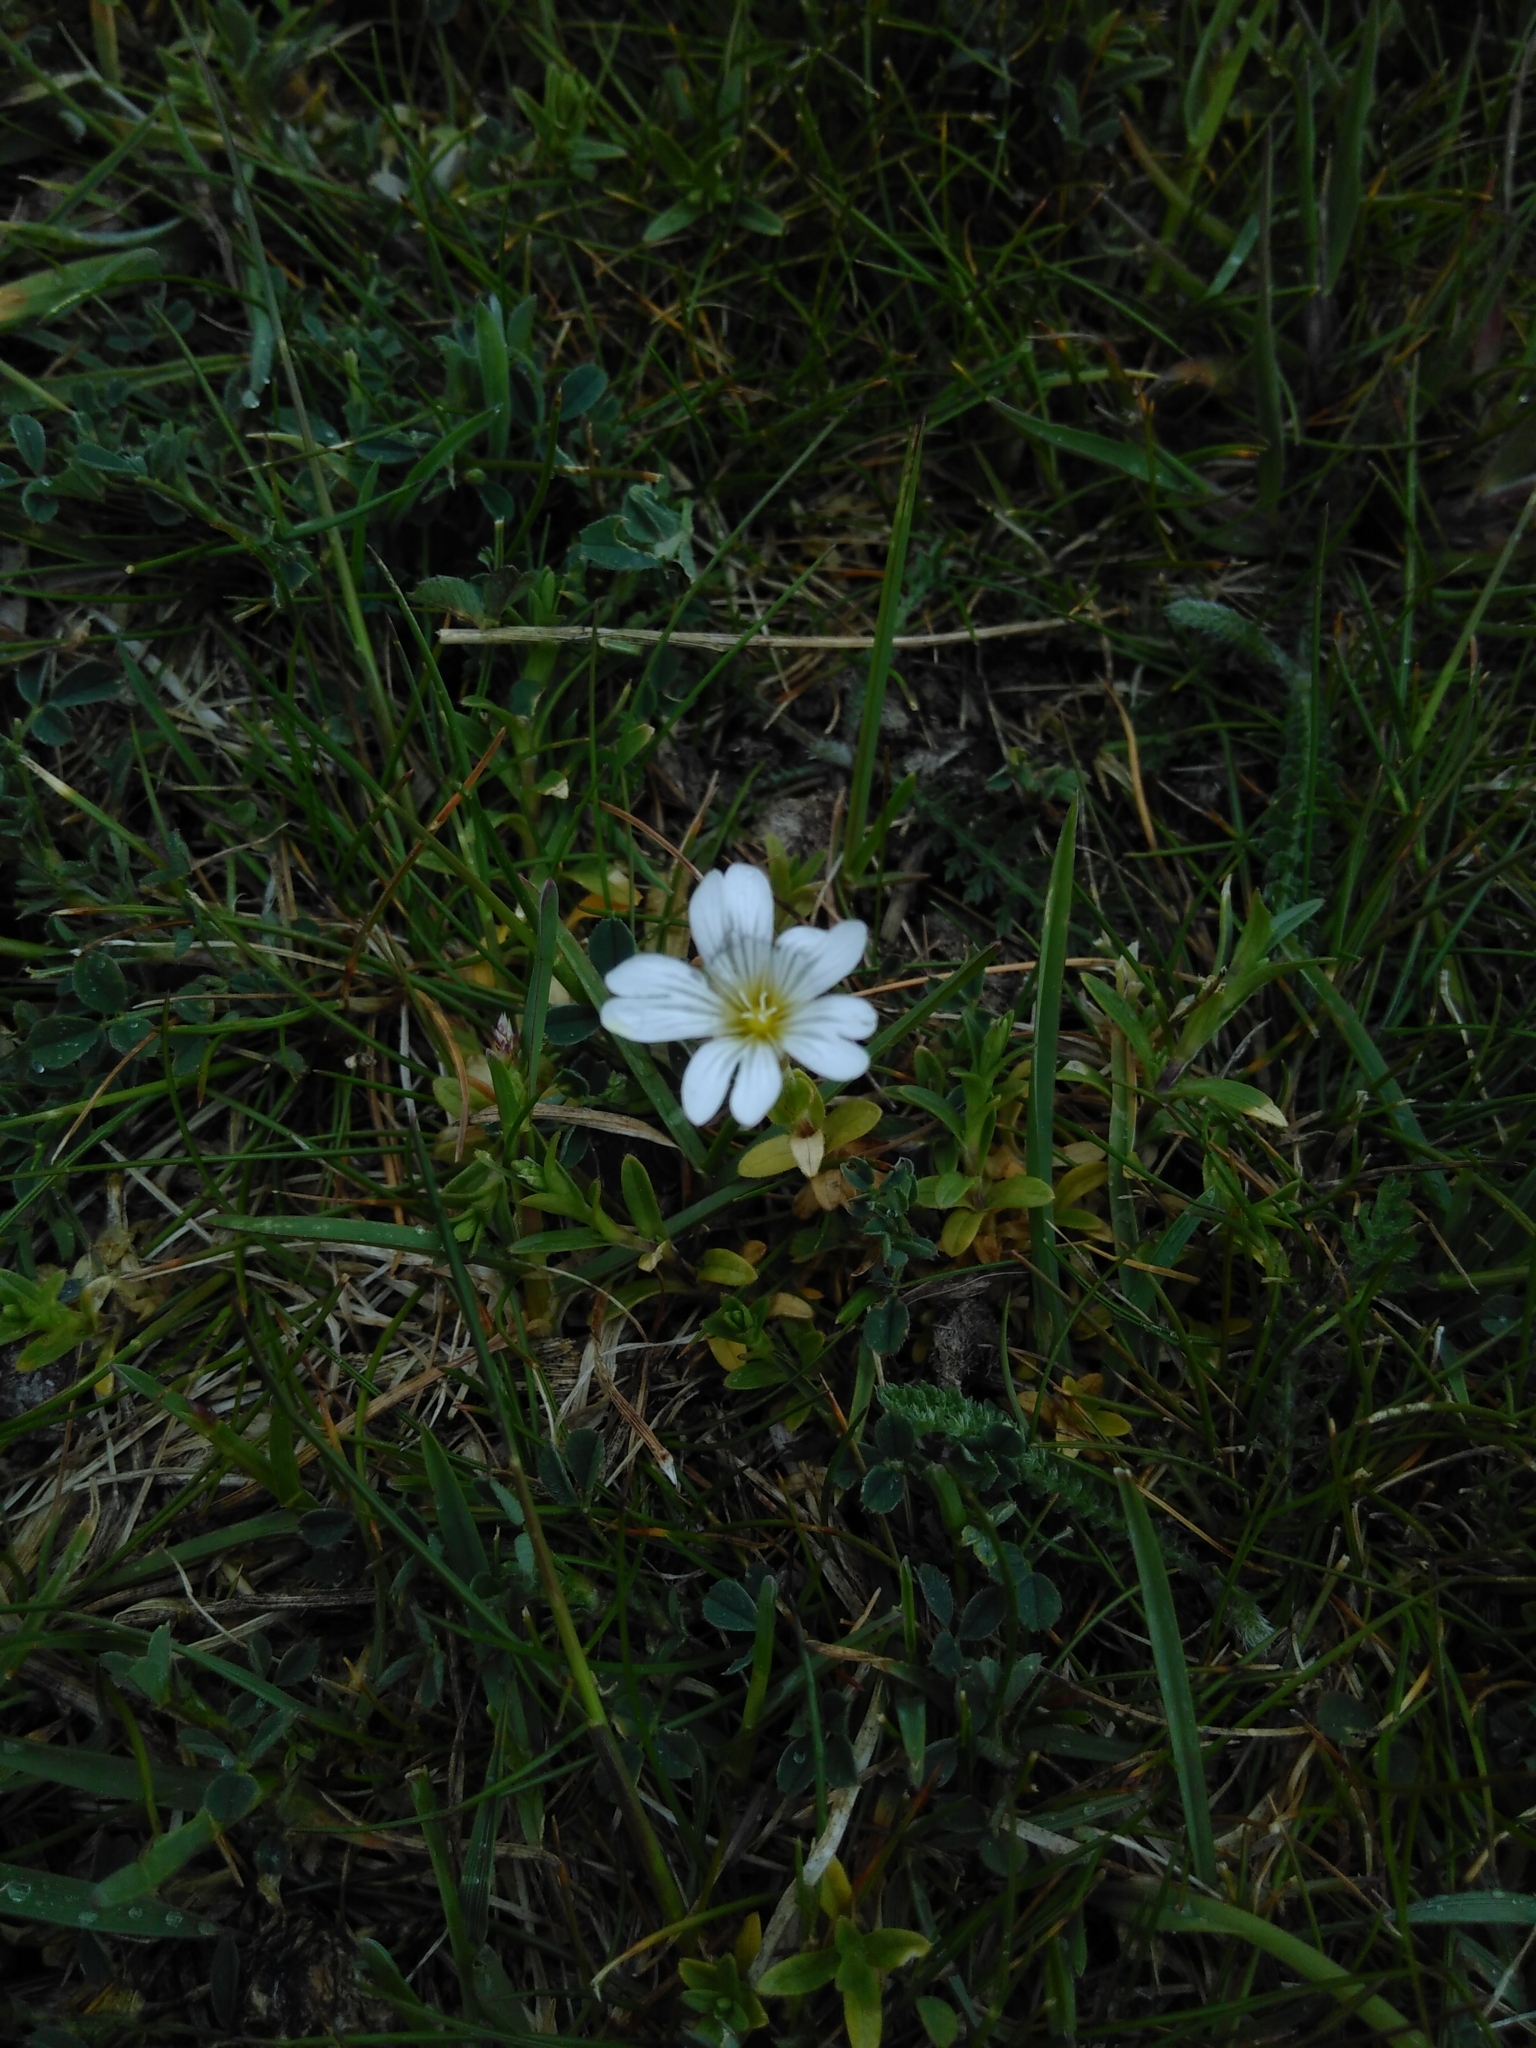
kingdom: Plantae
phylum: Tracheophyta
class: Magnoliopsida
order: Caryophyllales
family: Caryophyllaceae
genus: Cerastium
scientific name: Cerastium arvense
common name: Field mouse-ear
